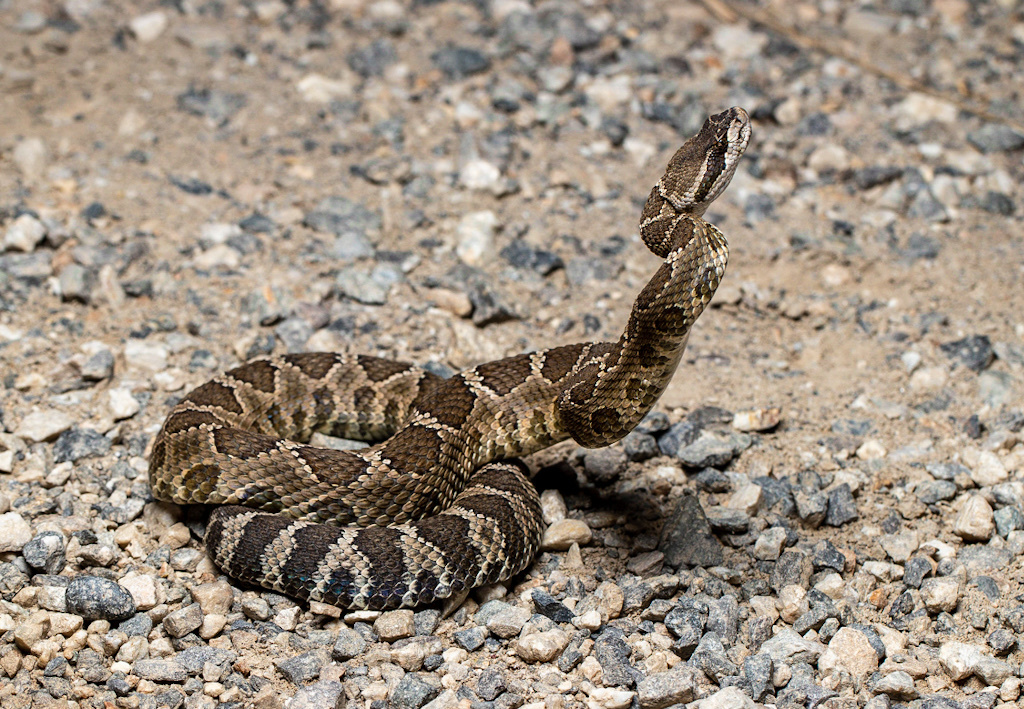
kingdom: Animalia
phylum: Chordata
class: Squamata
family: Viperidae
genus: Crotalus
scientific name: Crotalus oreganus
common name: Abyssus
